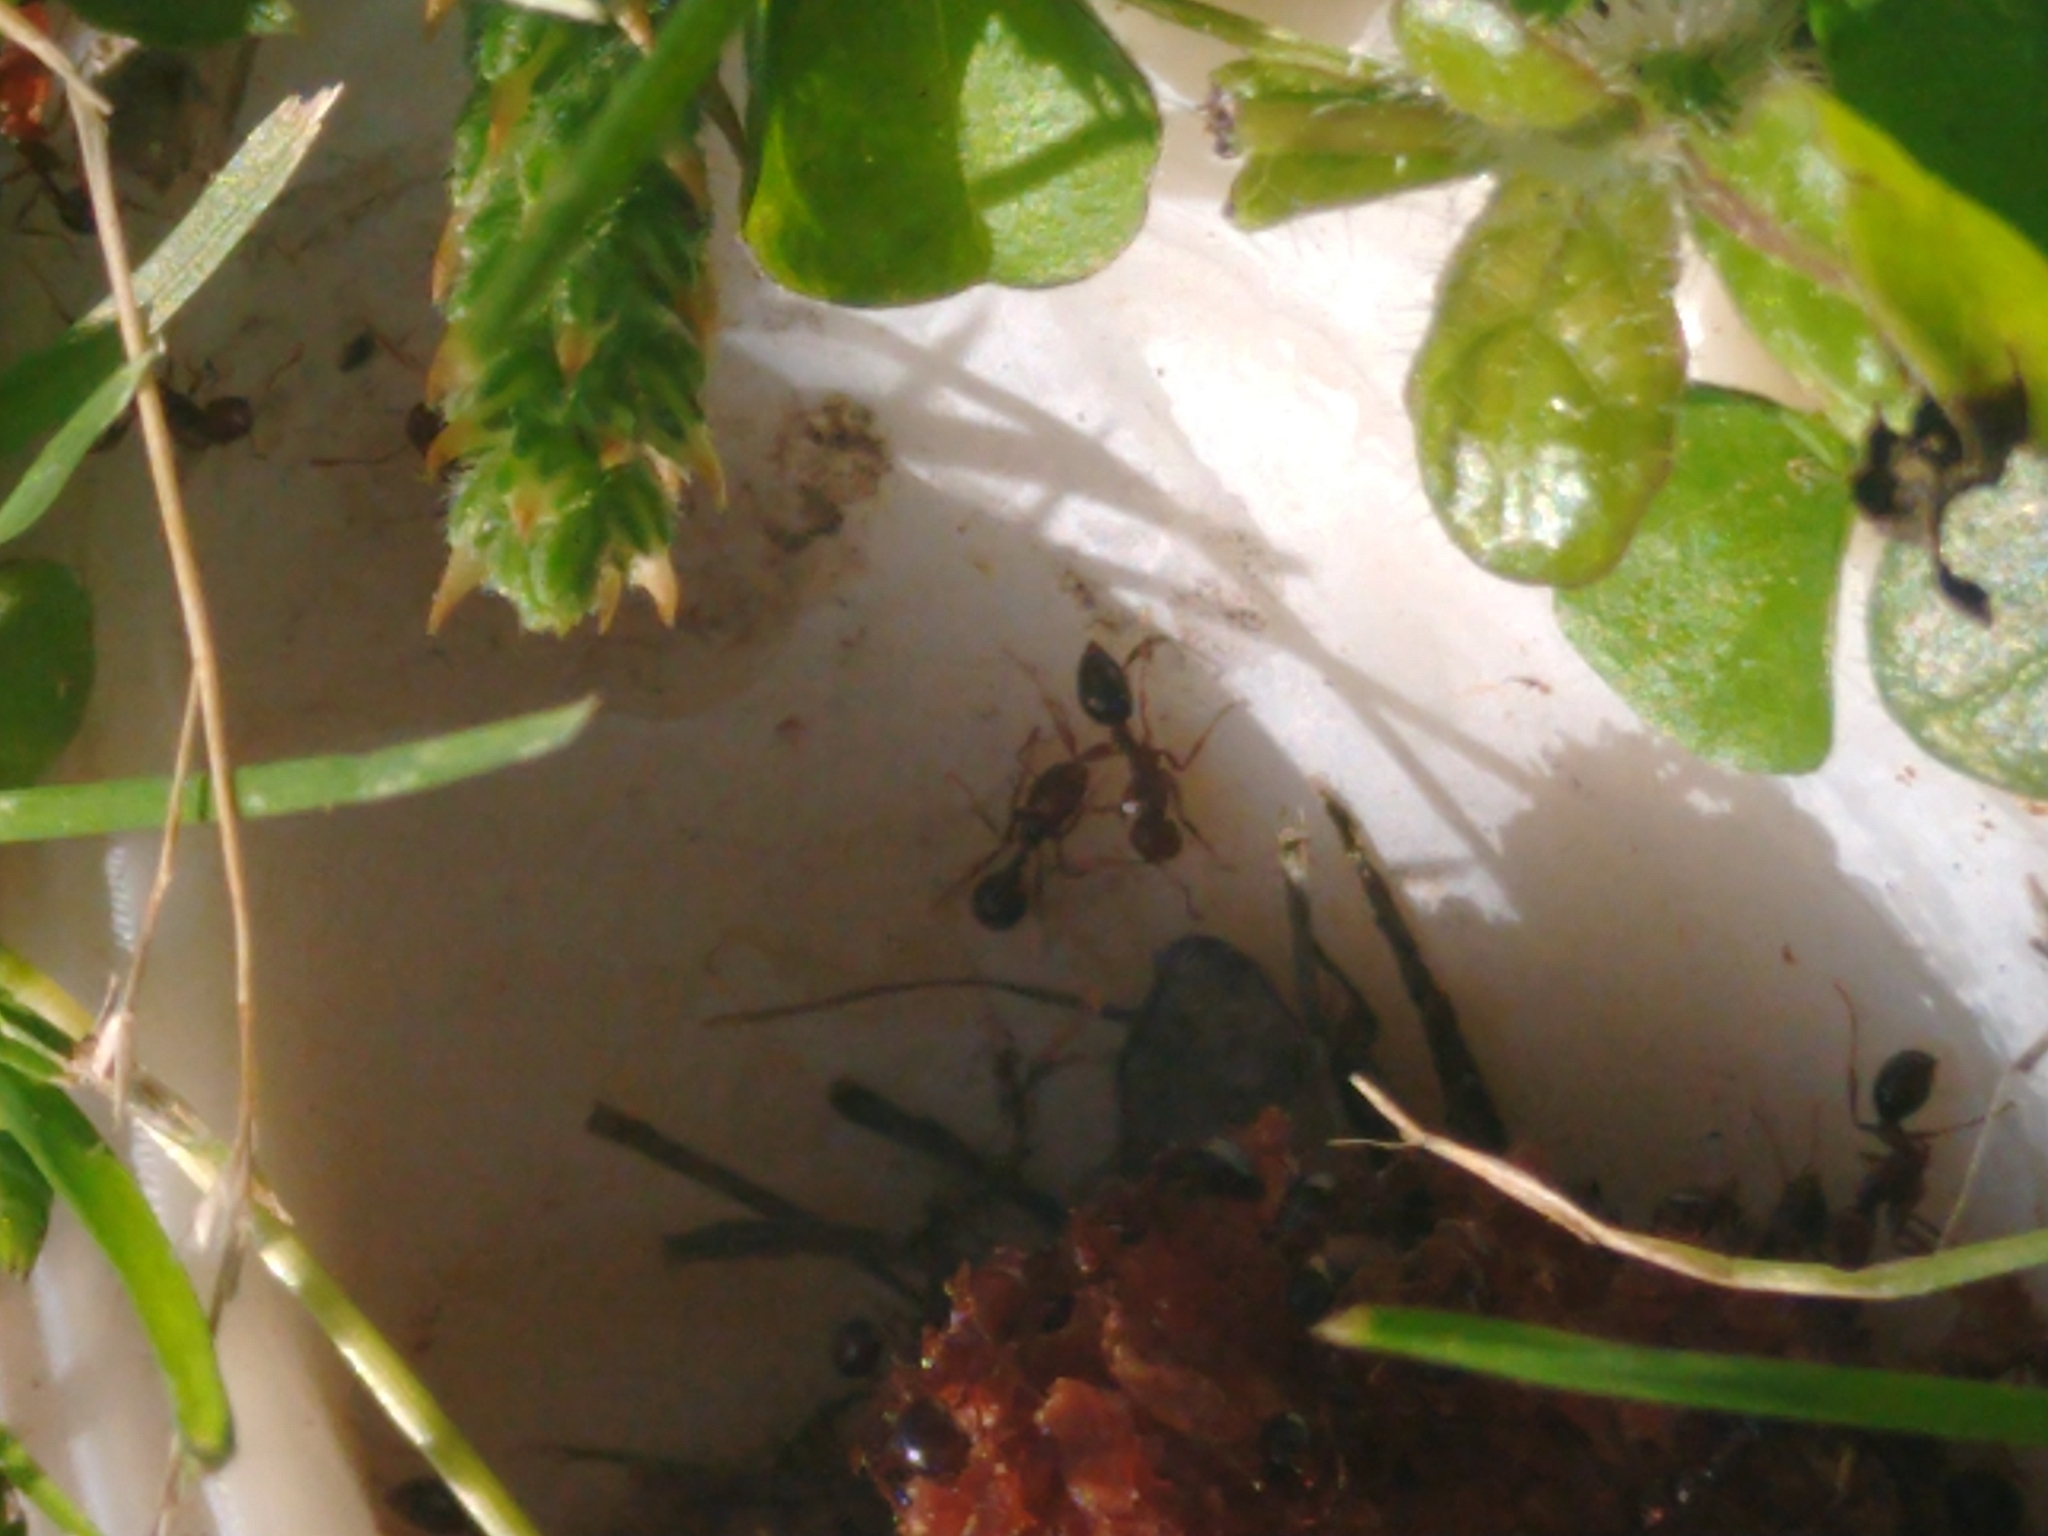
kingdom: Animalia
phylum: Arthropoda
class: Insecta
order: Hymenoptera
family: Formicidae
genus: Solenopsis
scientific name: Solenopsis invicta
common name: Red imported fire ant
